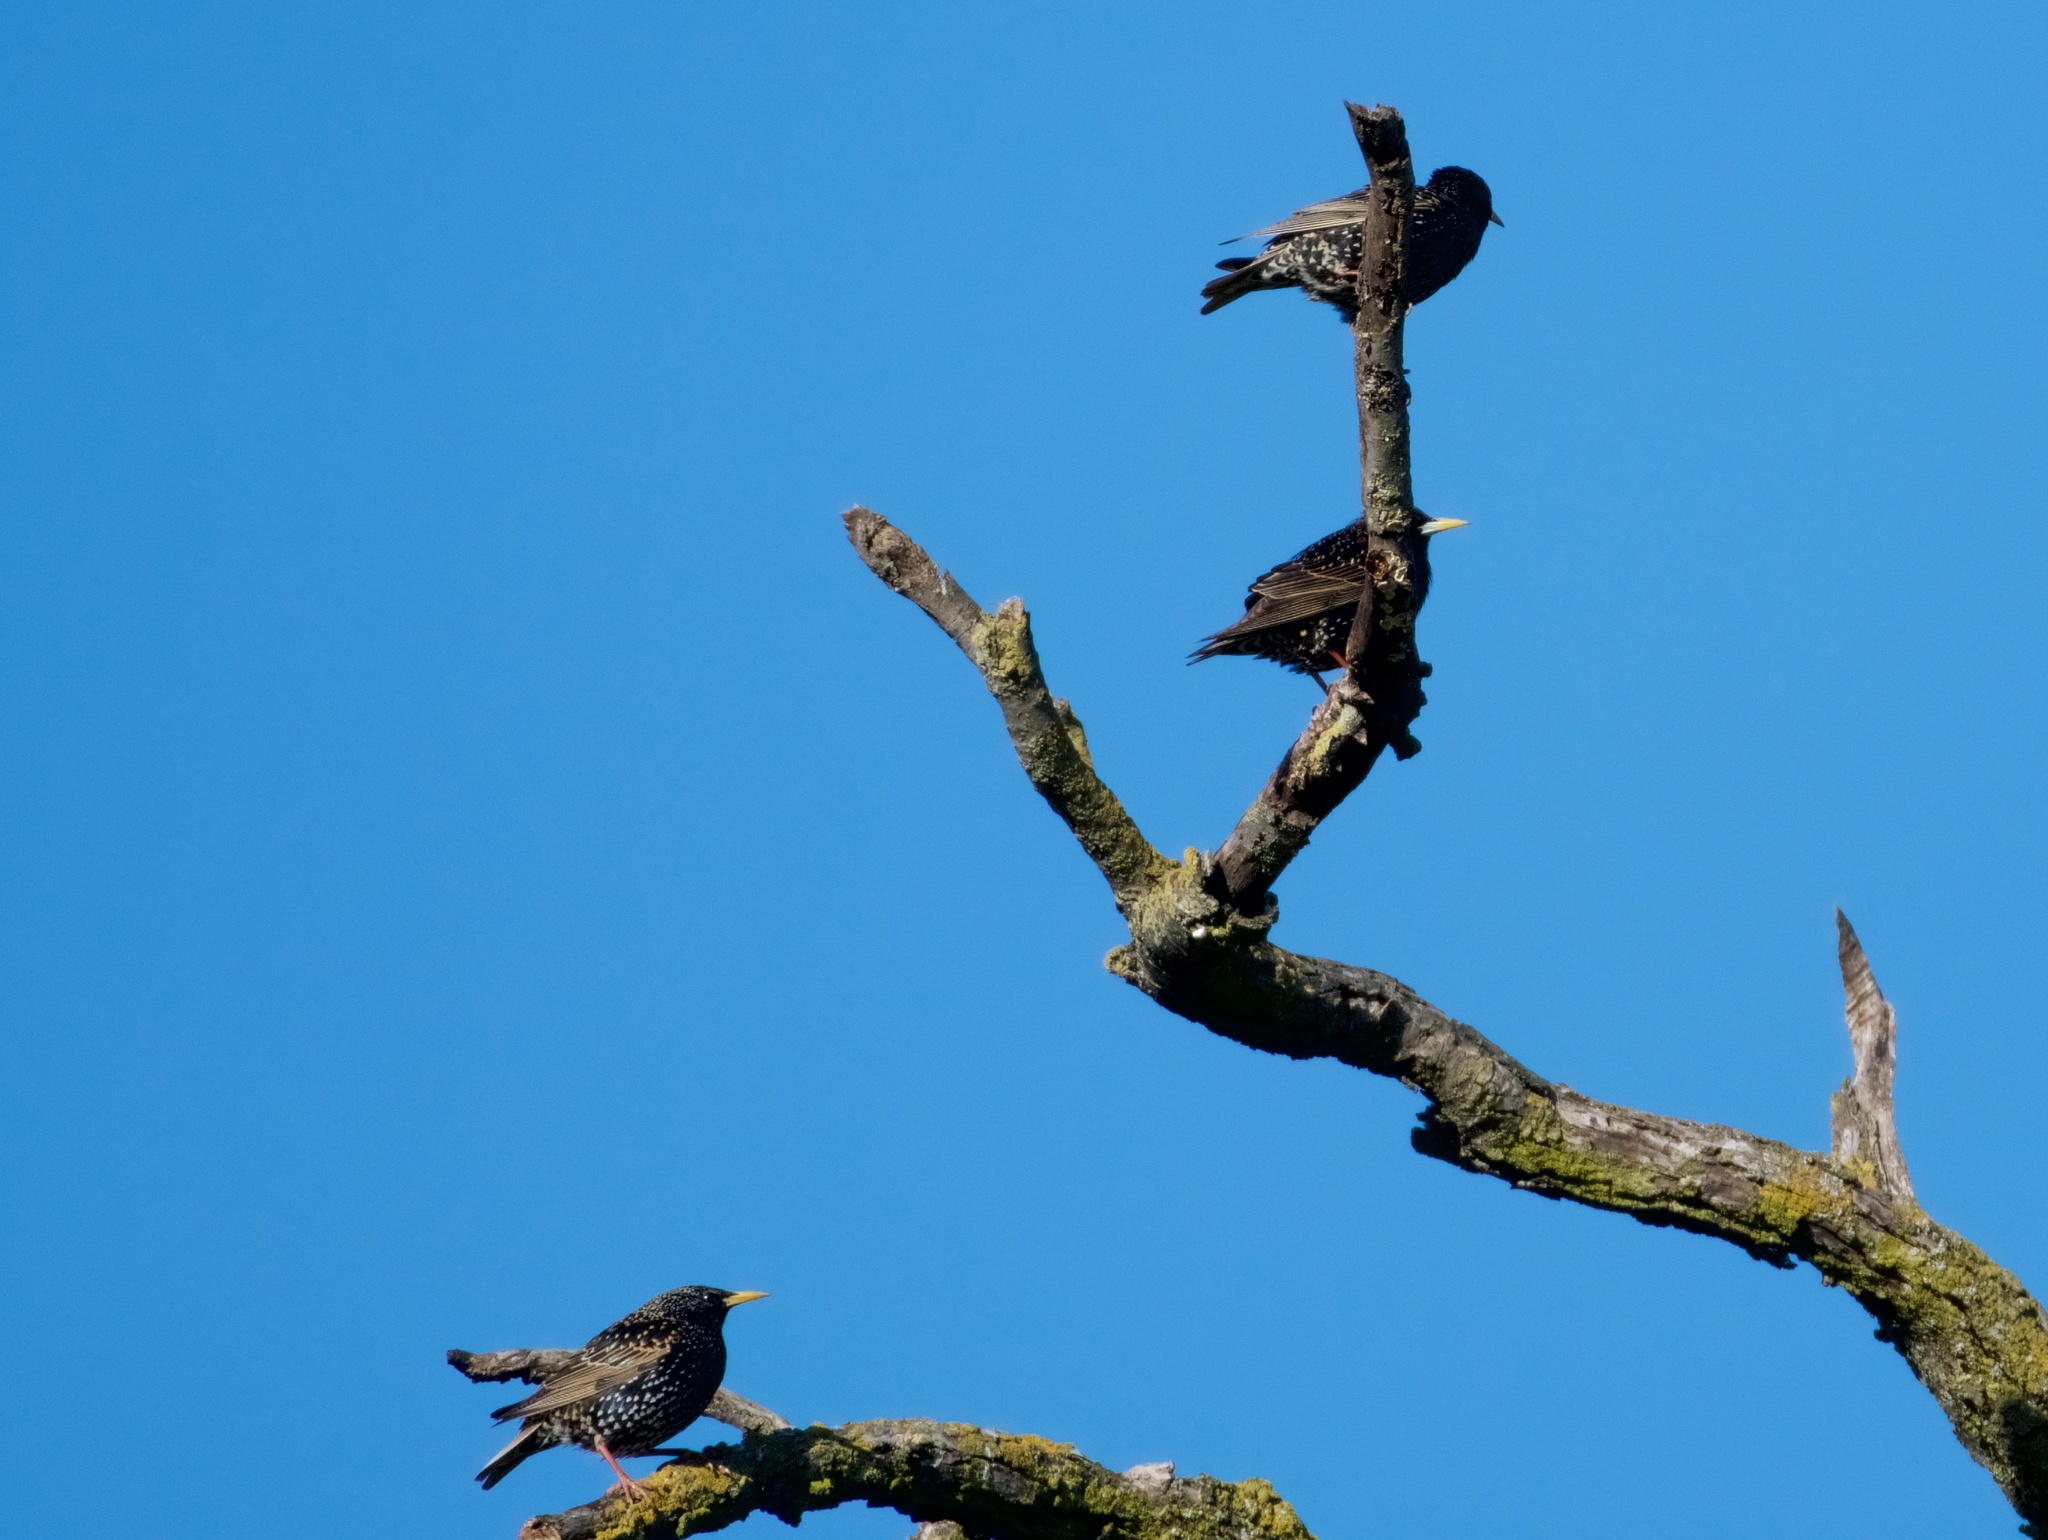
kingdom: Animalia
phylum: Chordata
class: Aves
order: Passeriformes
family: Sturnidae
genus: Sturnus
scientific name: Sturnus vulgaris
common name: Common starling
